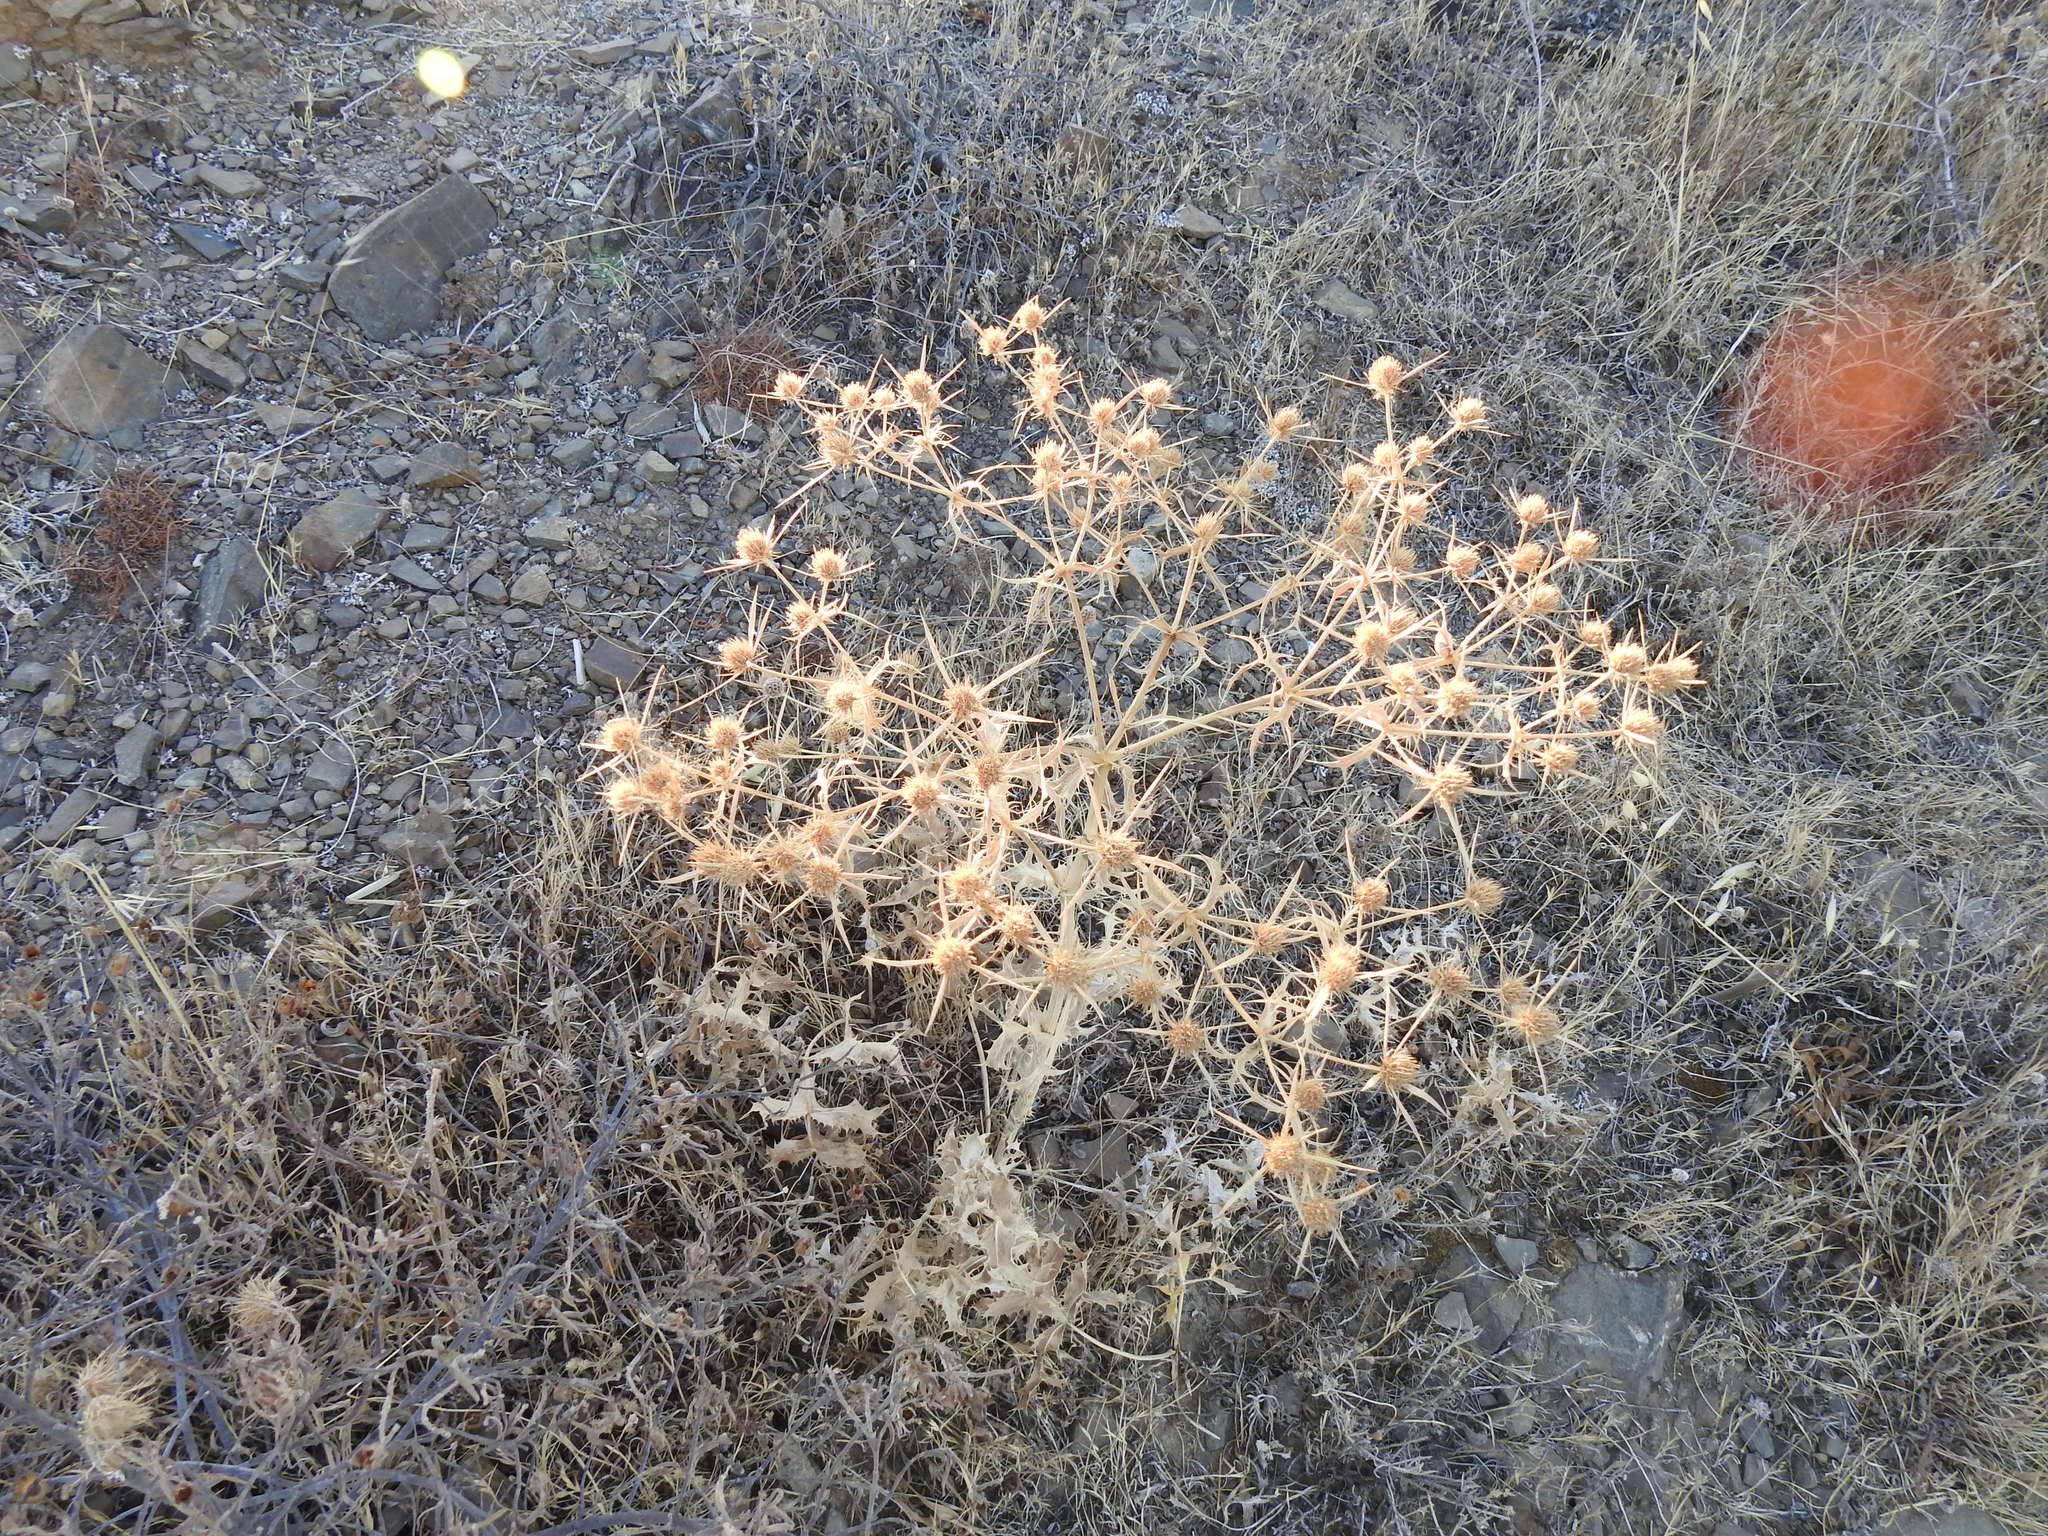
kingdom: Plantae
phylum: Tracheophyta
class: Magnoliopsida
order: Apiales
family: Apiaceae
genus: Eryngium
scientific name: Eryngium campestre
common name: Field eryngo
